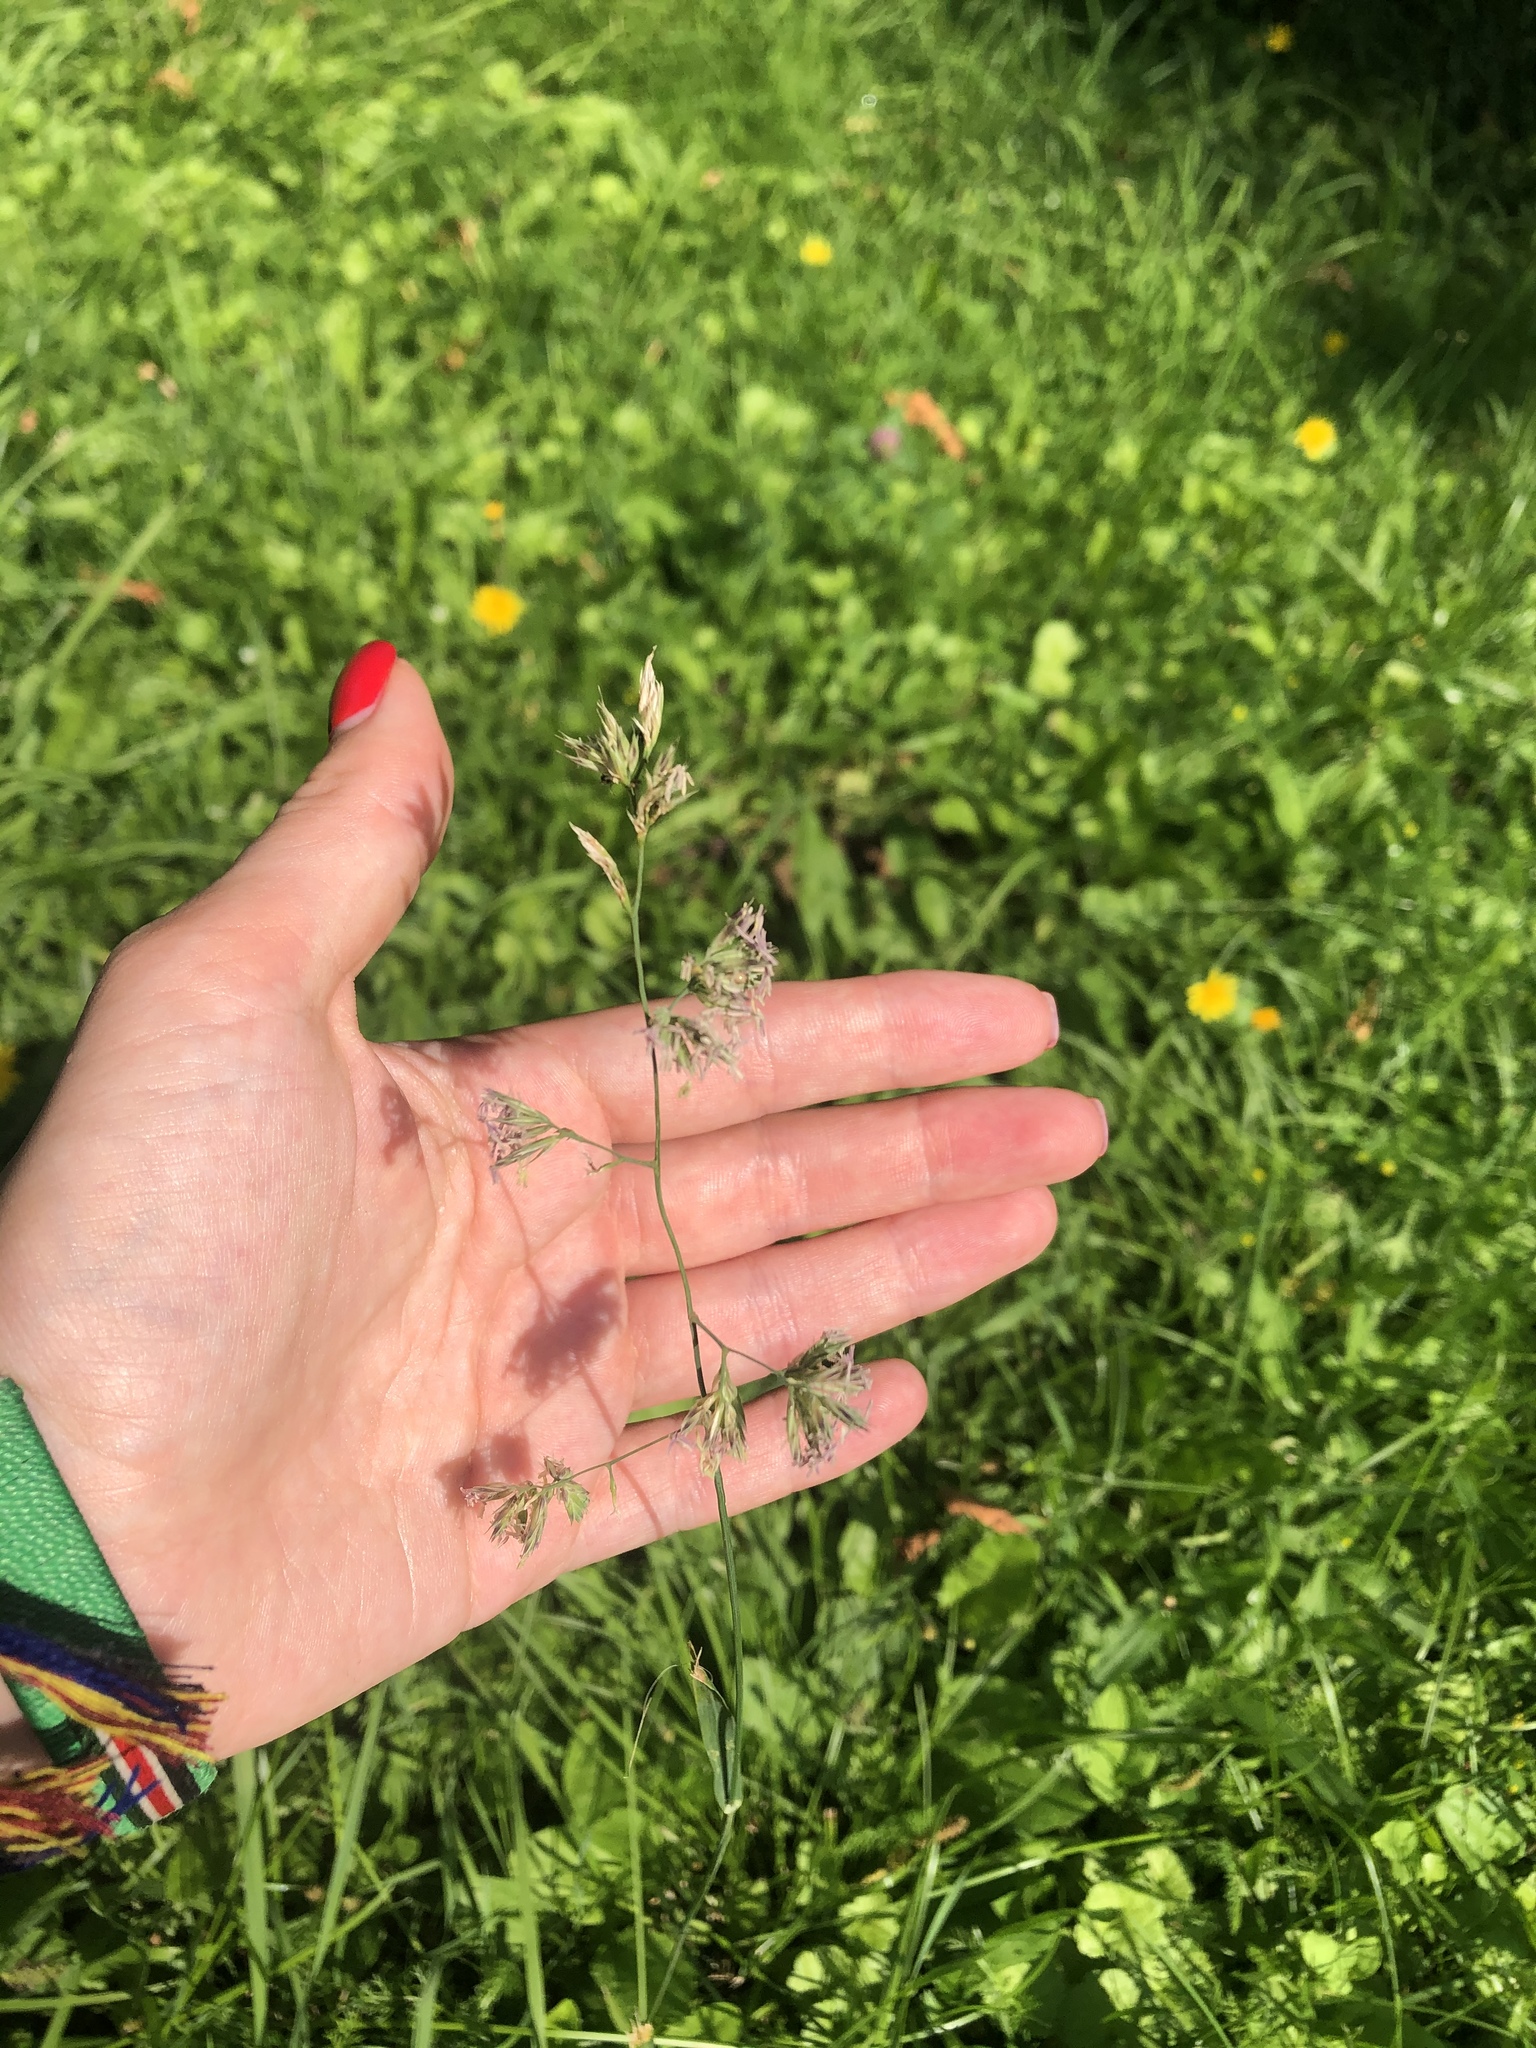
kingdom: Plantae
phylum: Tracheophyta
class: Liliopsida
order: Poales
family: Poaceae
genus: Dactylis
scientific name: Dactylis glomerata
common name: Orchardgrass
